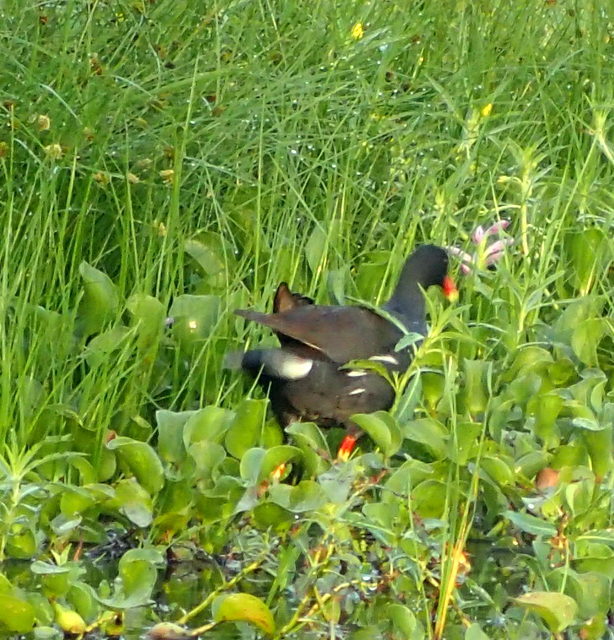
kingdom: Animalia
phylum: Chordata
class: Aves
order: Gruiformes
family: Rallidae
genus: Gallinula
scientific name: Gallinula chloropus
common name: Common moorhen
